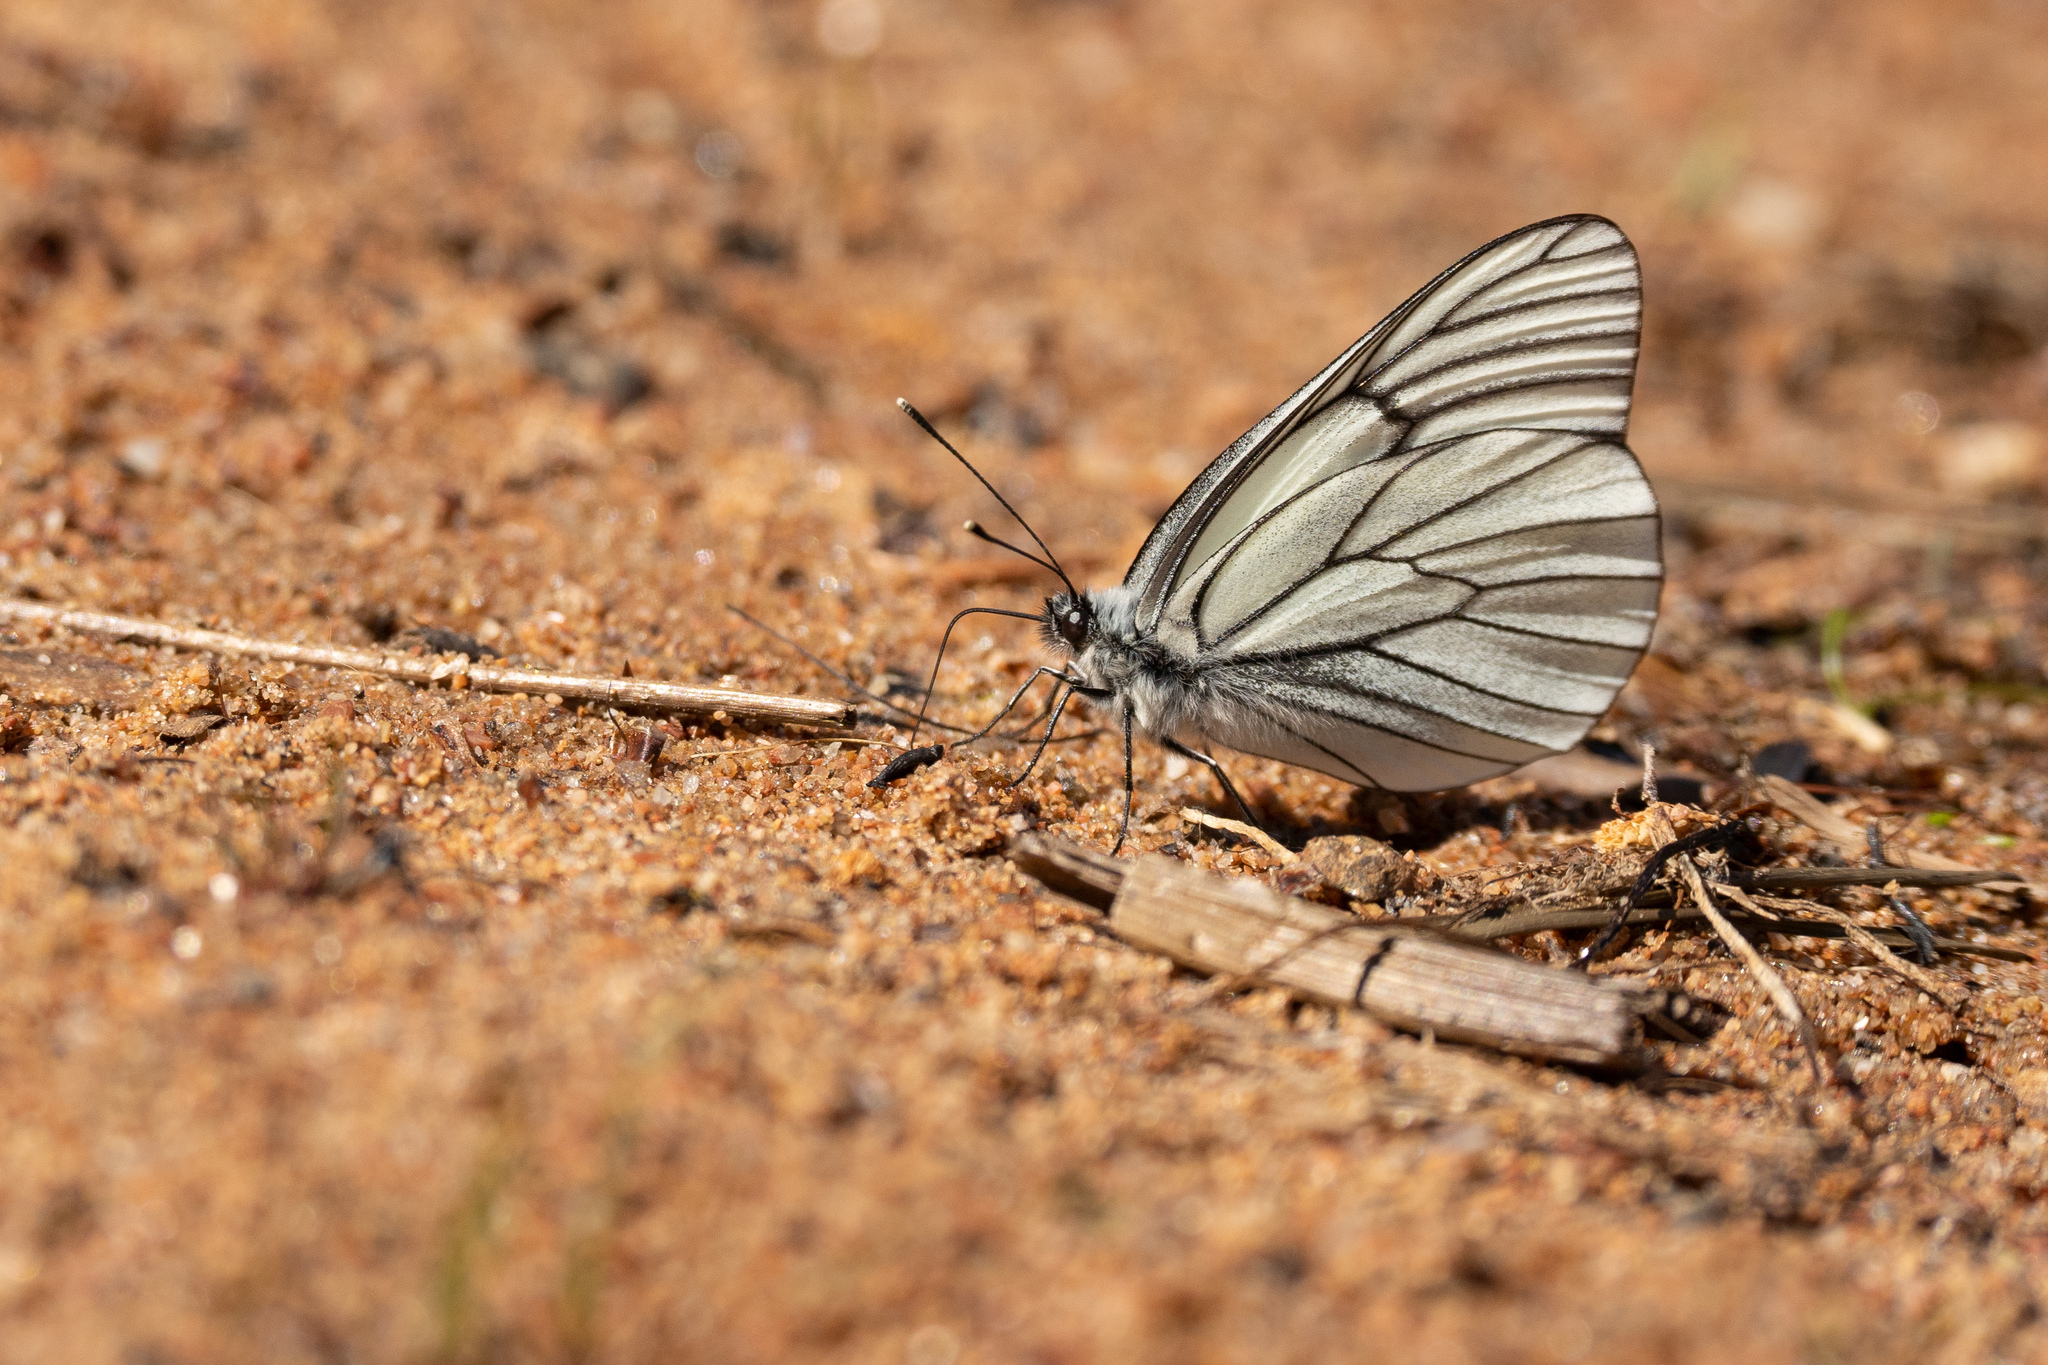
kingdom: Animalia
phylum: Arthropoda
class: Insecta
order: Lepidoptera
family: Pieridae
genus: Aporia
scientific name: Aporia crataegi
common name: Black-veined white
